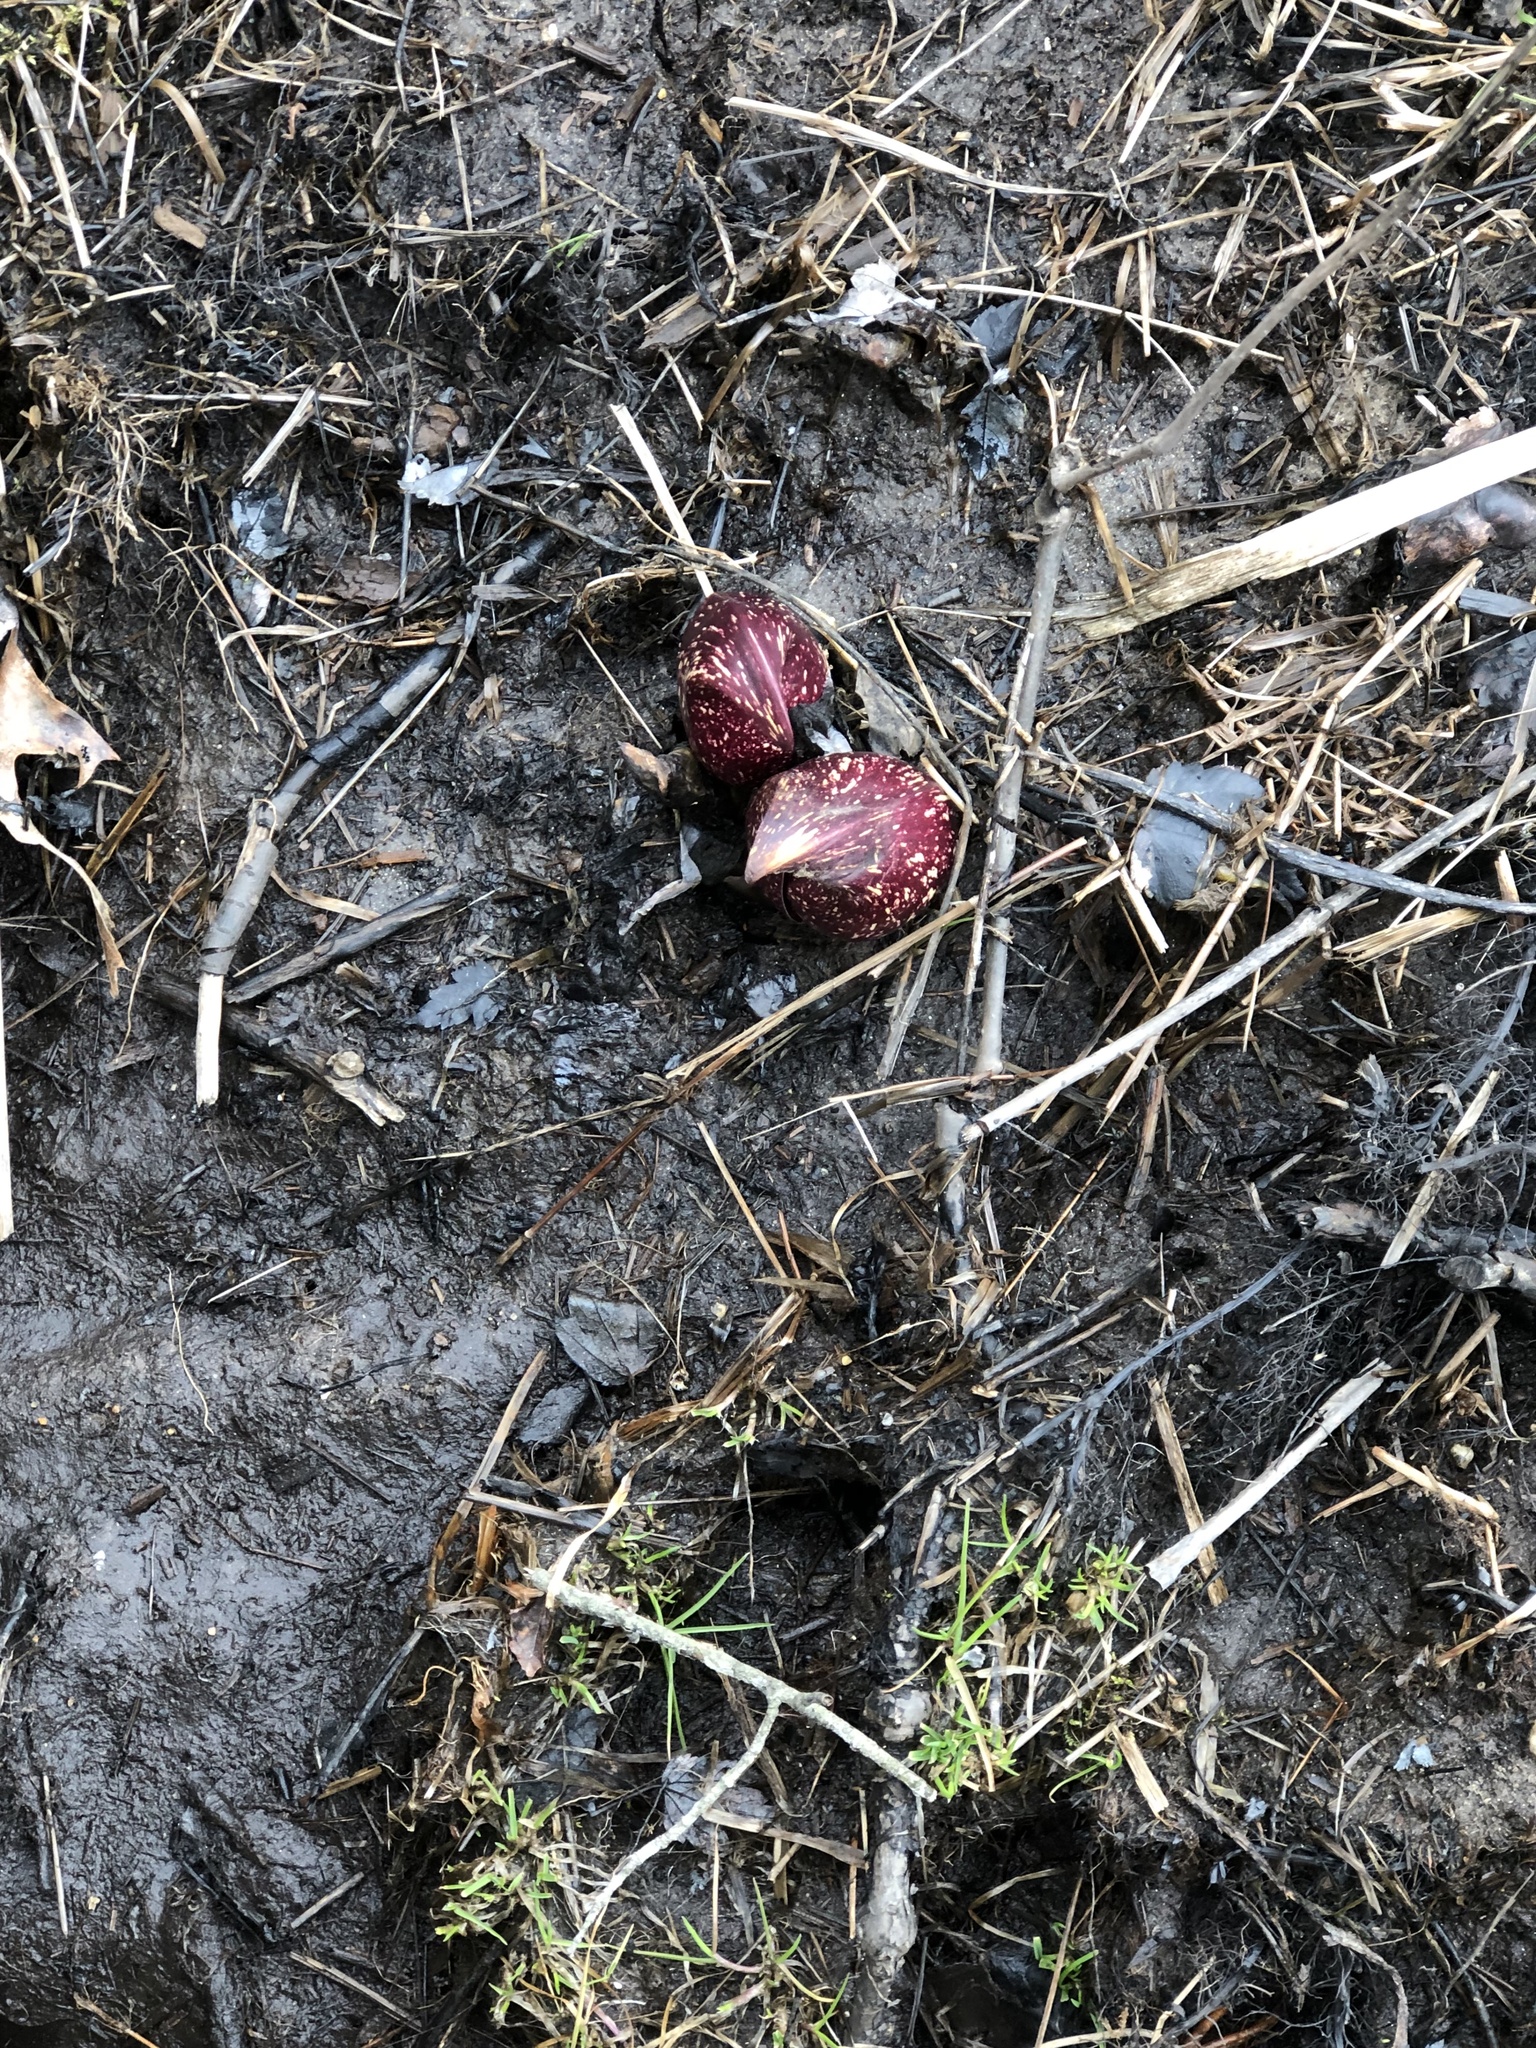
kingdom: Plantae
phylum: Tracheophyta
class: Liliopsida
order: Alismatales
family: Araceae
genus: Symplocarpus
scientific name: Symplocarpus foetidus
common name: Eastern skunk cabbage
